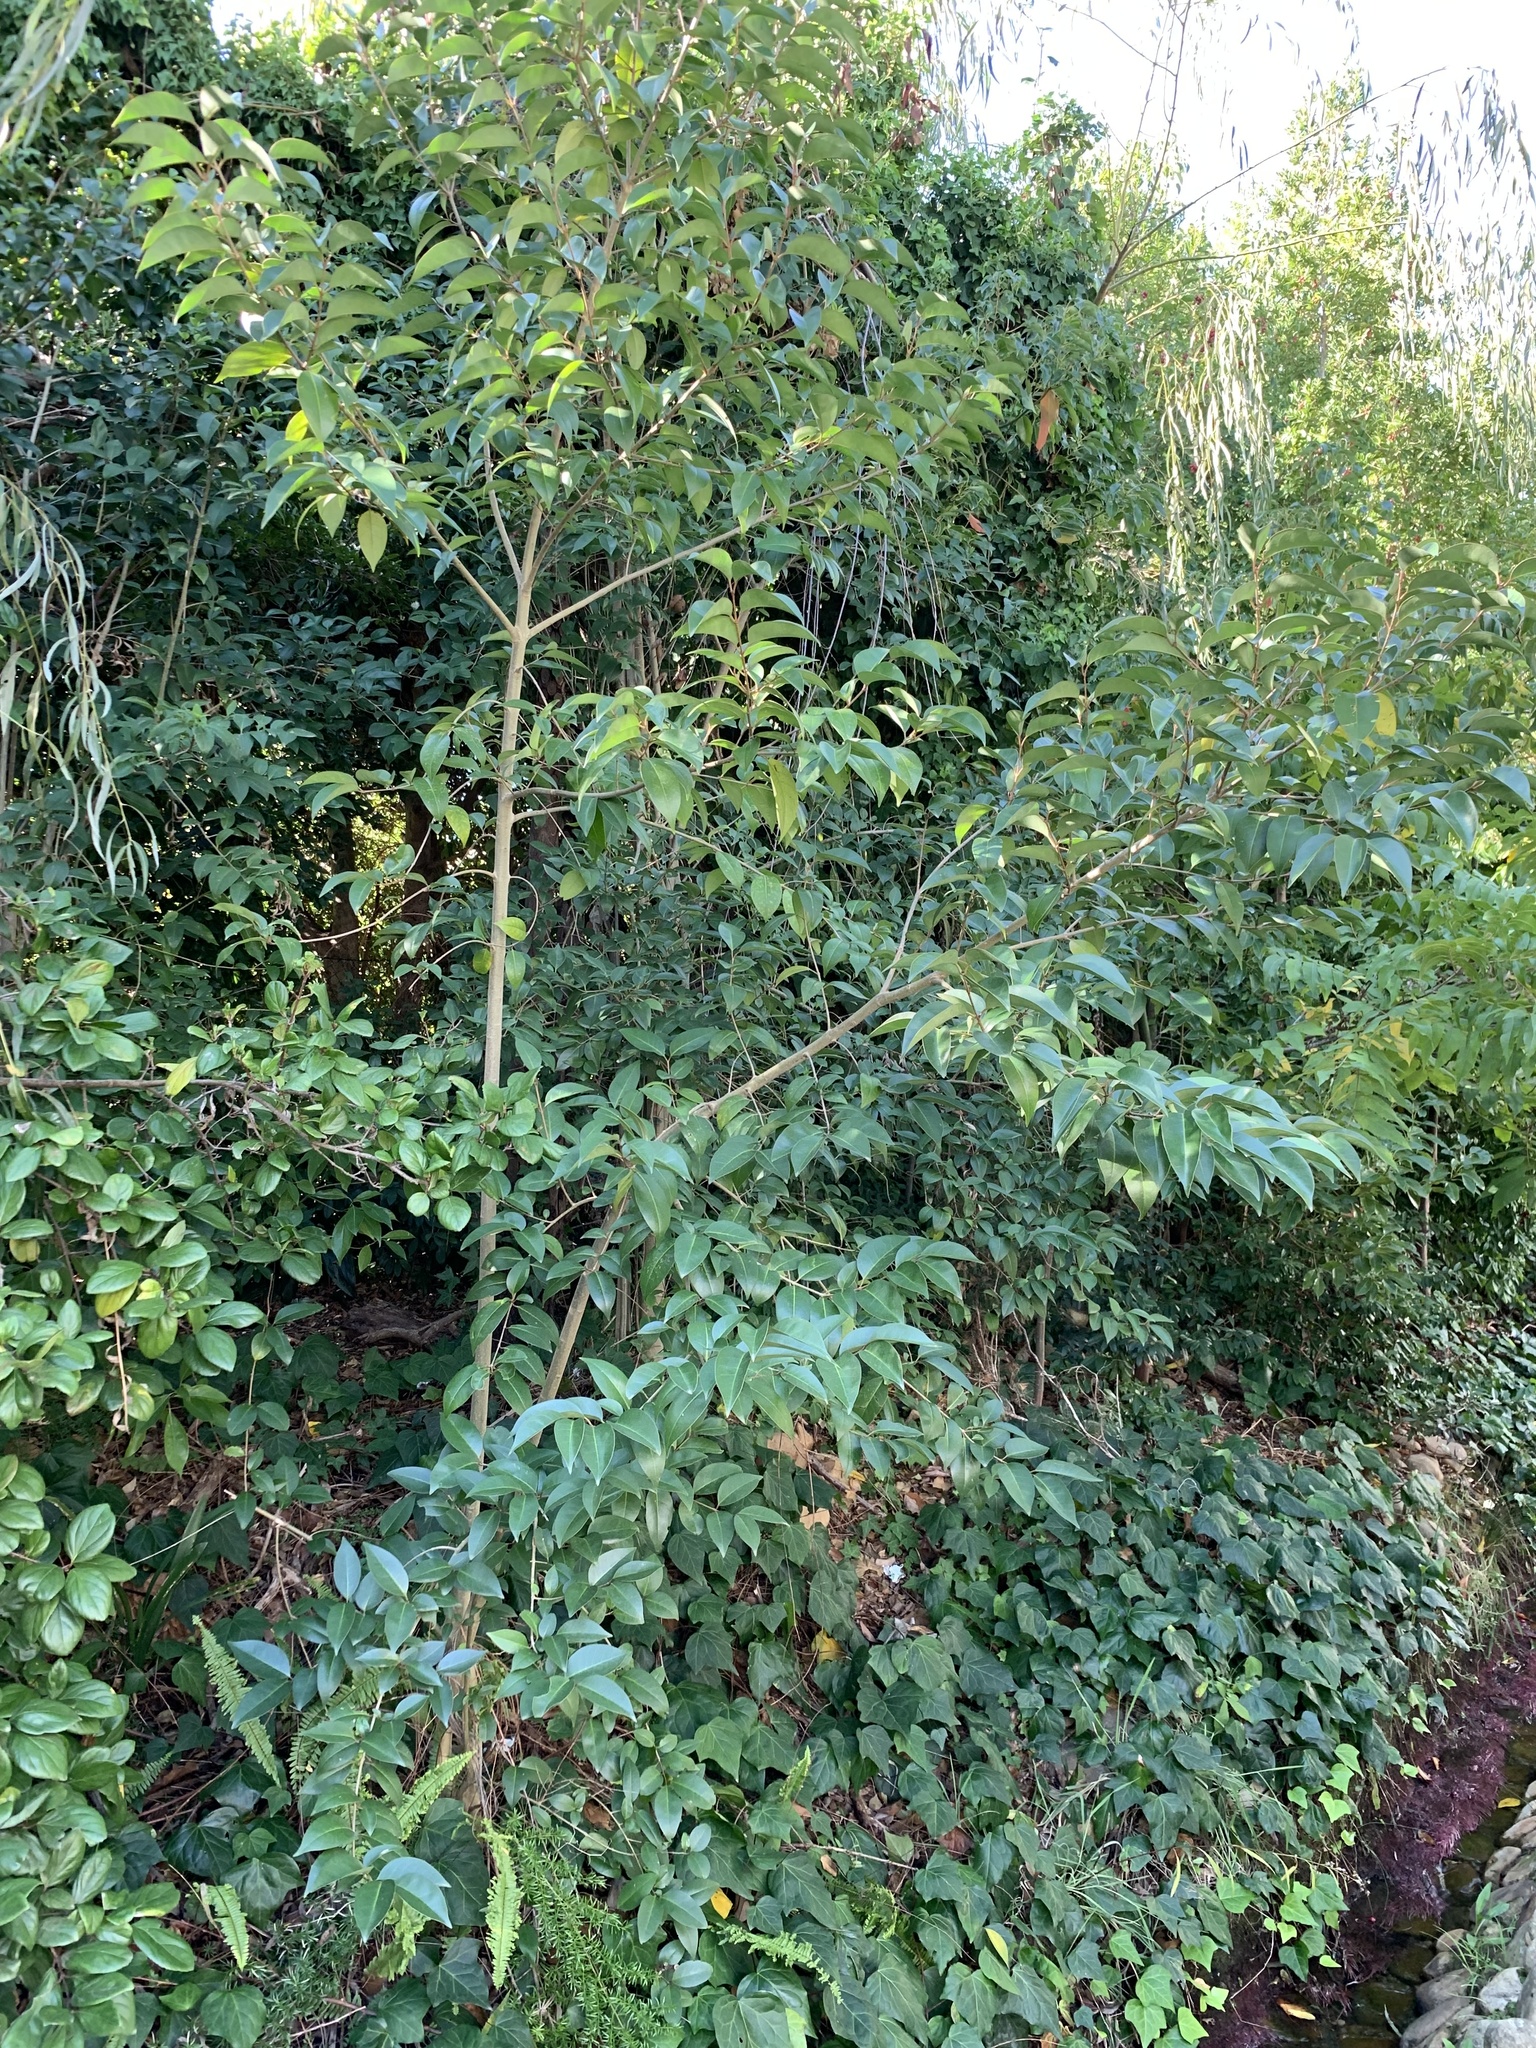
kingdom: Plantae
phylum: Tracheophyta
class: Magnoliopsida
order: Lamiales
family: Oleaceae
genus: Ligustrum
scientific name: Ligustrum lucidum
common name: Glossy privet
